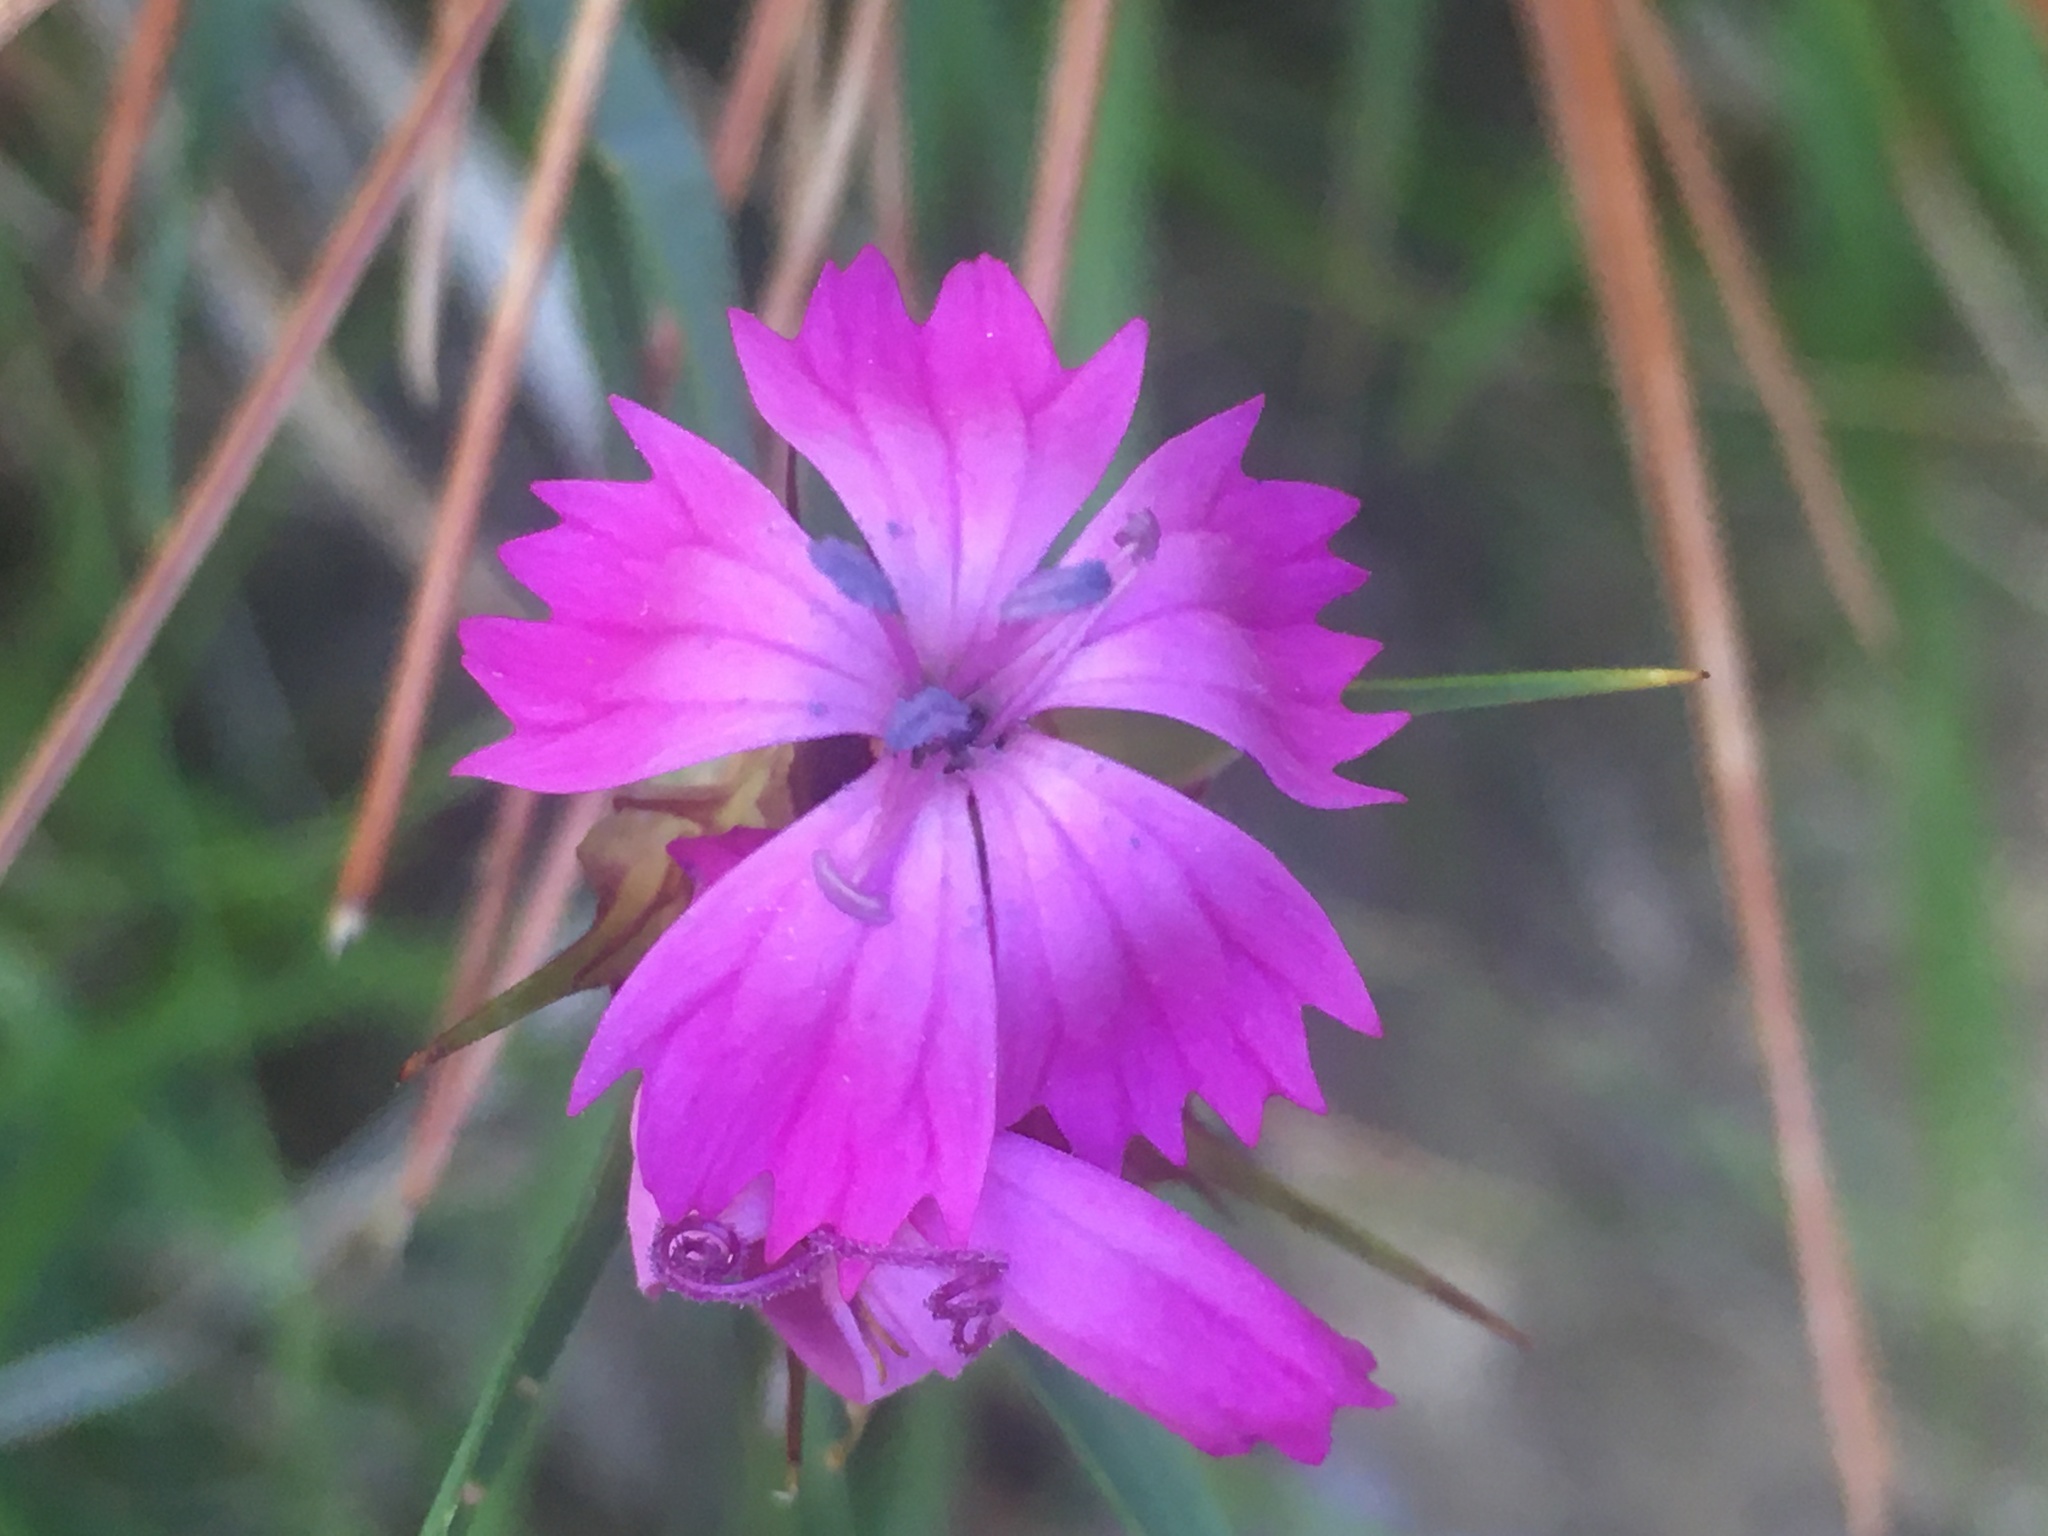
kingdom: Plantae
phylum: Tracheophyta
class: Magnoliopsida
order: Caryophyllales
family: Caryophyllaceae
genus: Dianthus
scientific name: Dianthus capitatus
